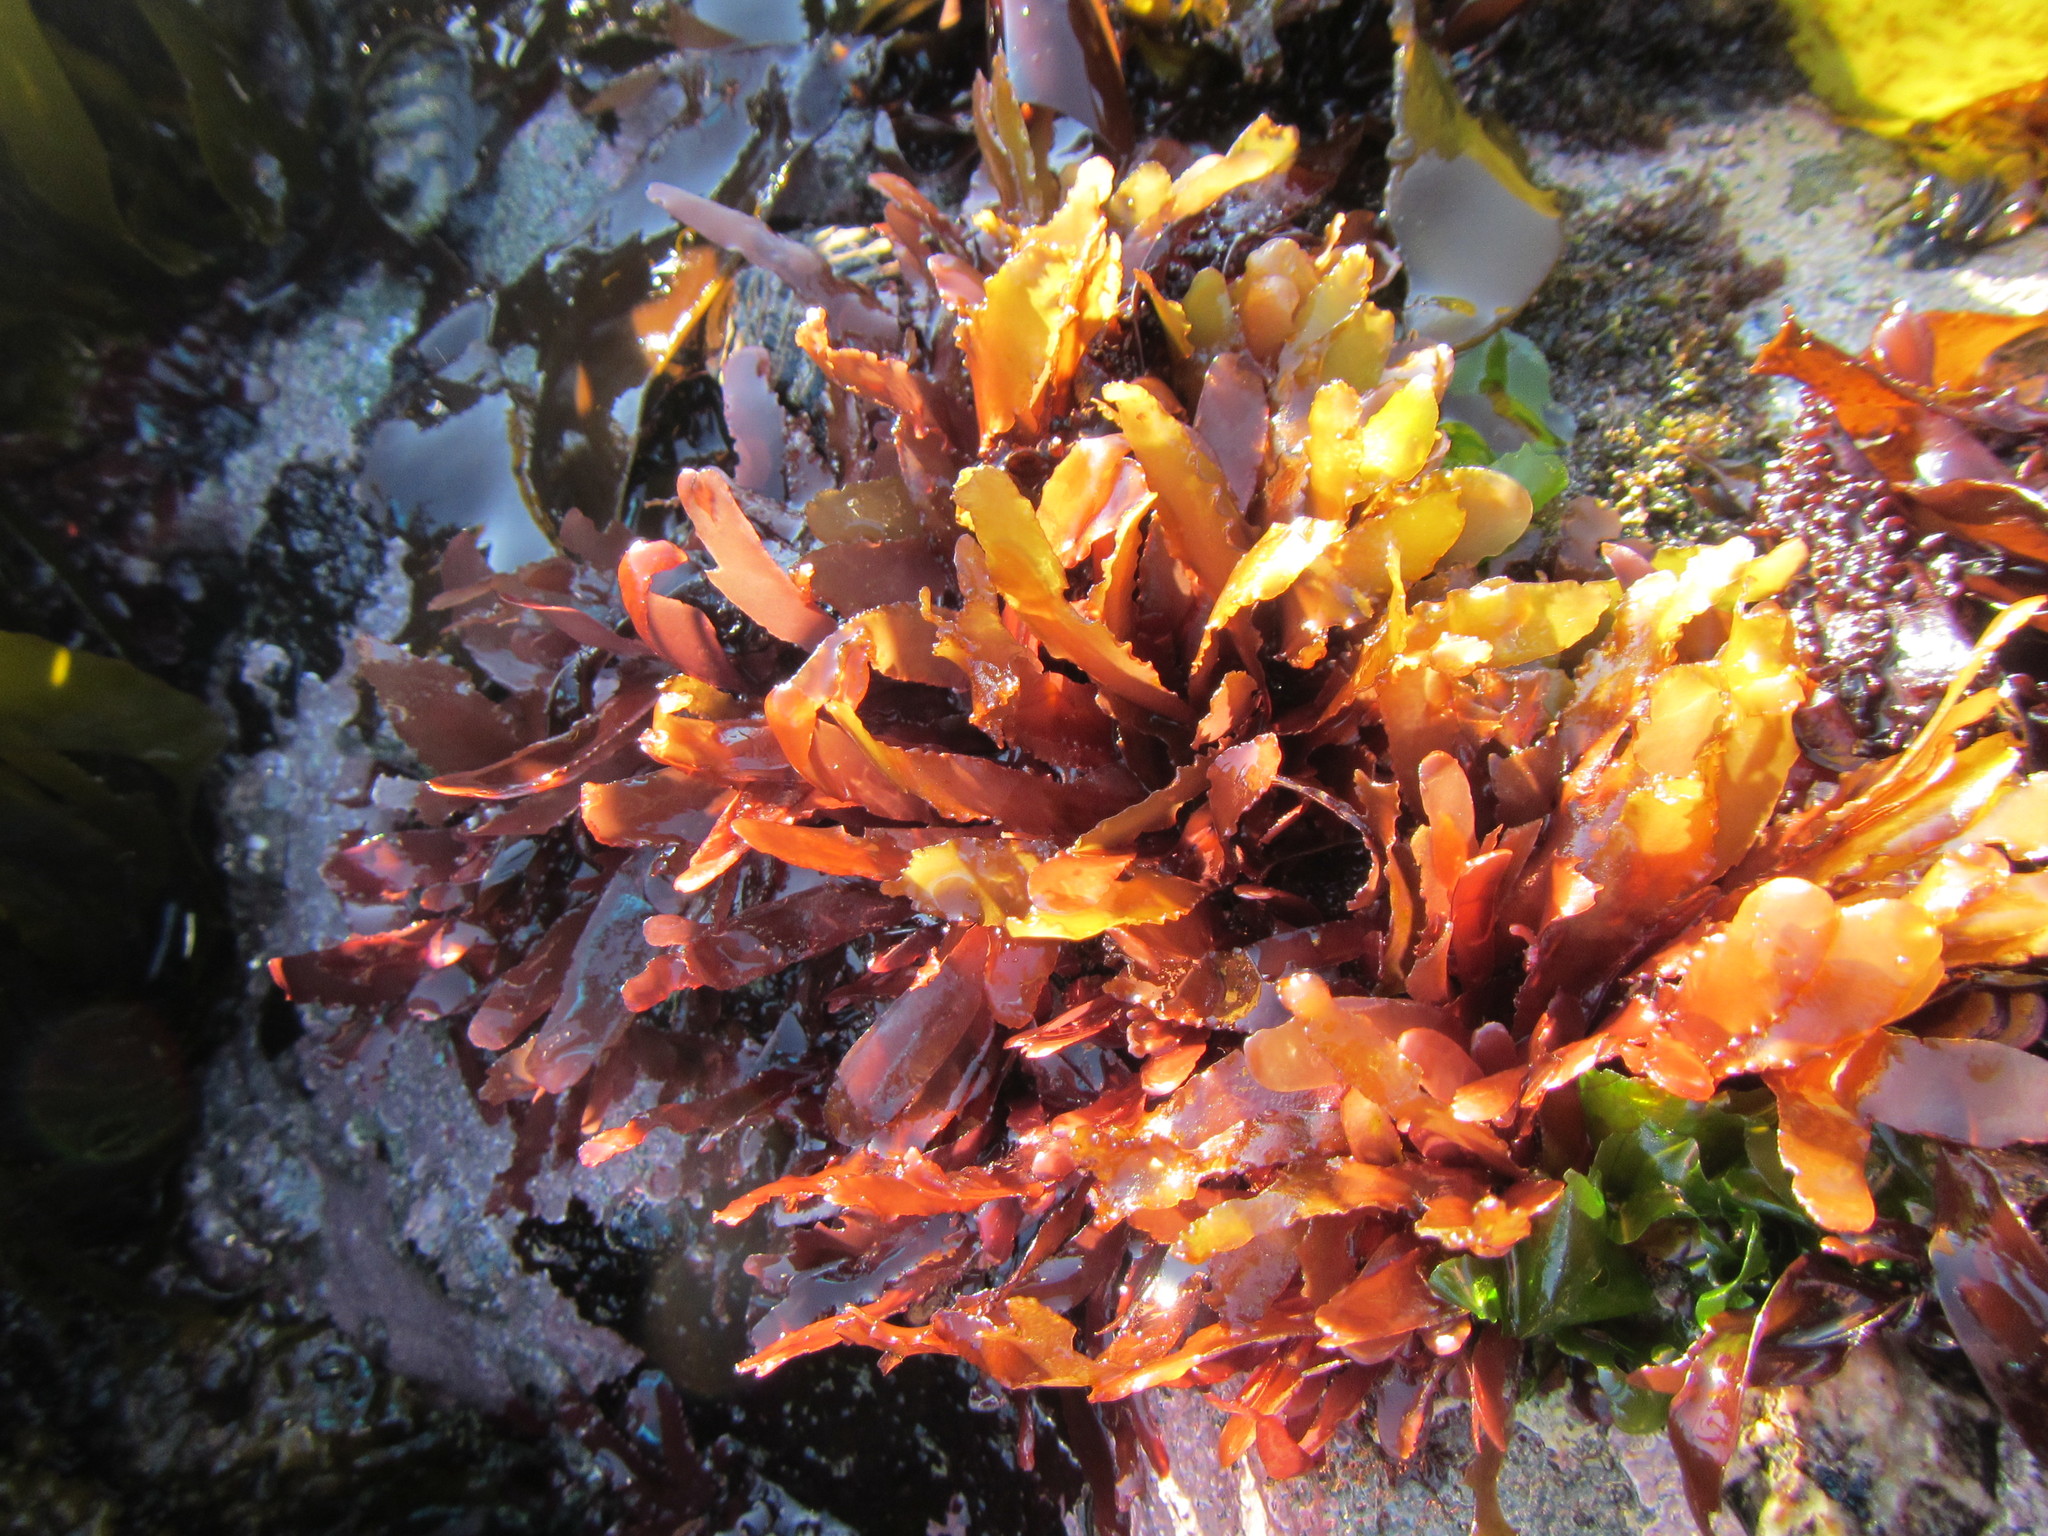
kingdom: Plantae
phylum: Rhodophyta
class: Florideophyceae
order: Gigartinales
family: Phyllophoraceae
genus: Schottera
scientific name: Schottera nicaeensis
